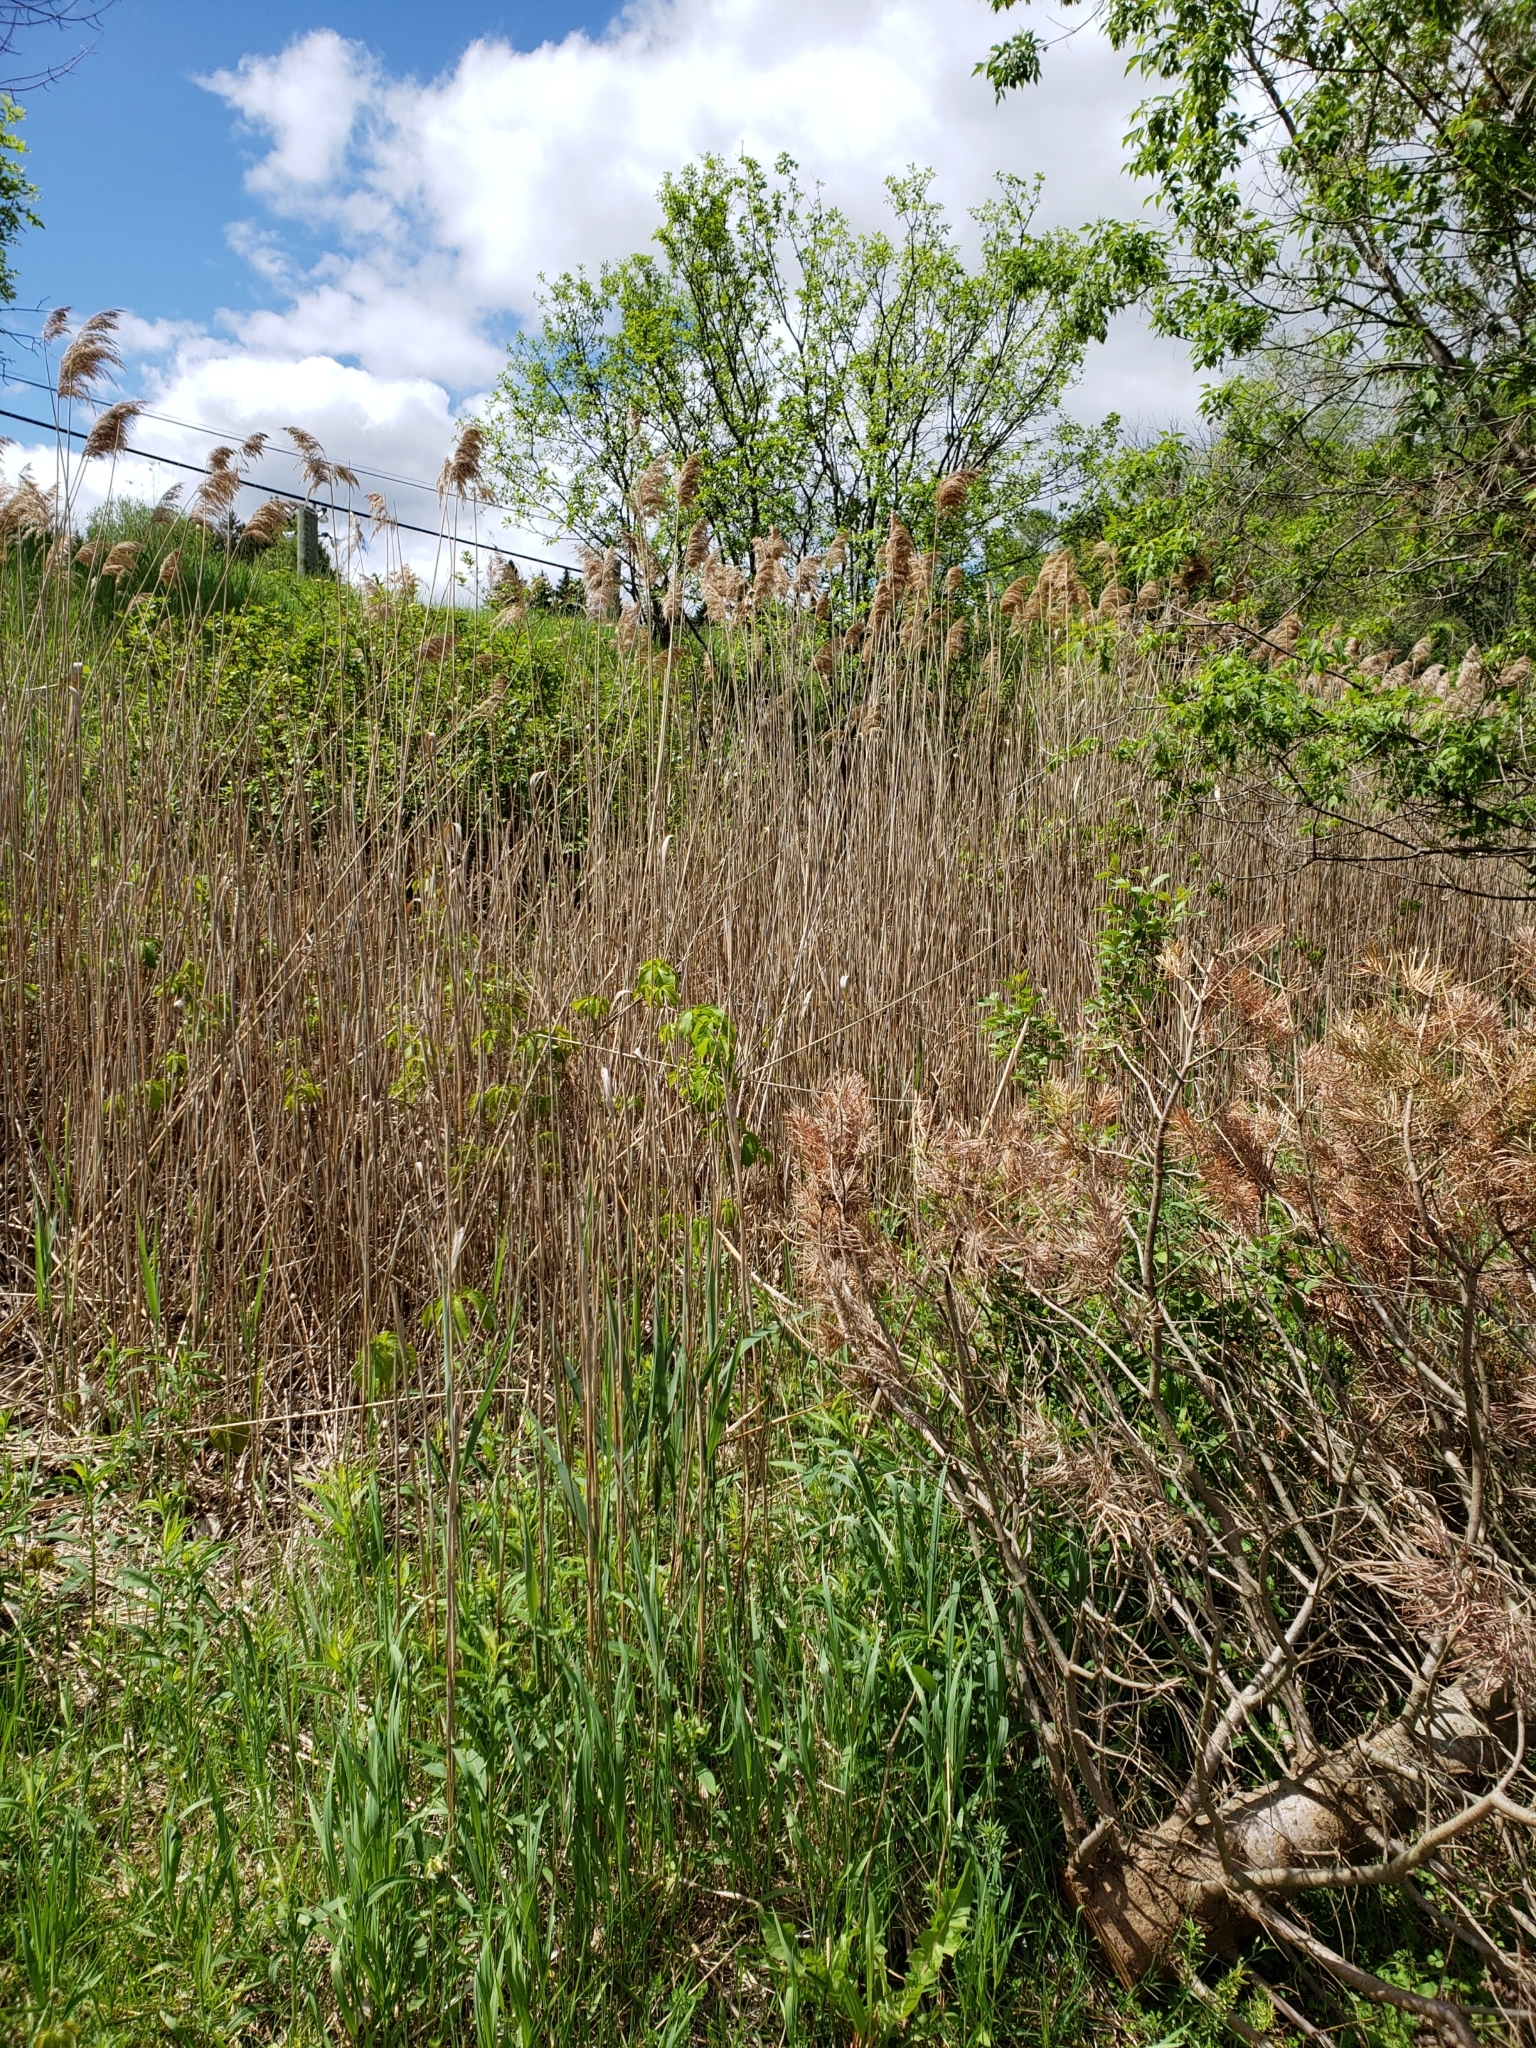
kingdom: Plantae
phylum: Tracheophyta
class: Liliopsida
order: Poales
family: Poaceae
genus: Phragmites
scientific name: Phragmites australis
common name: Common reed
